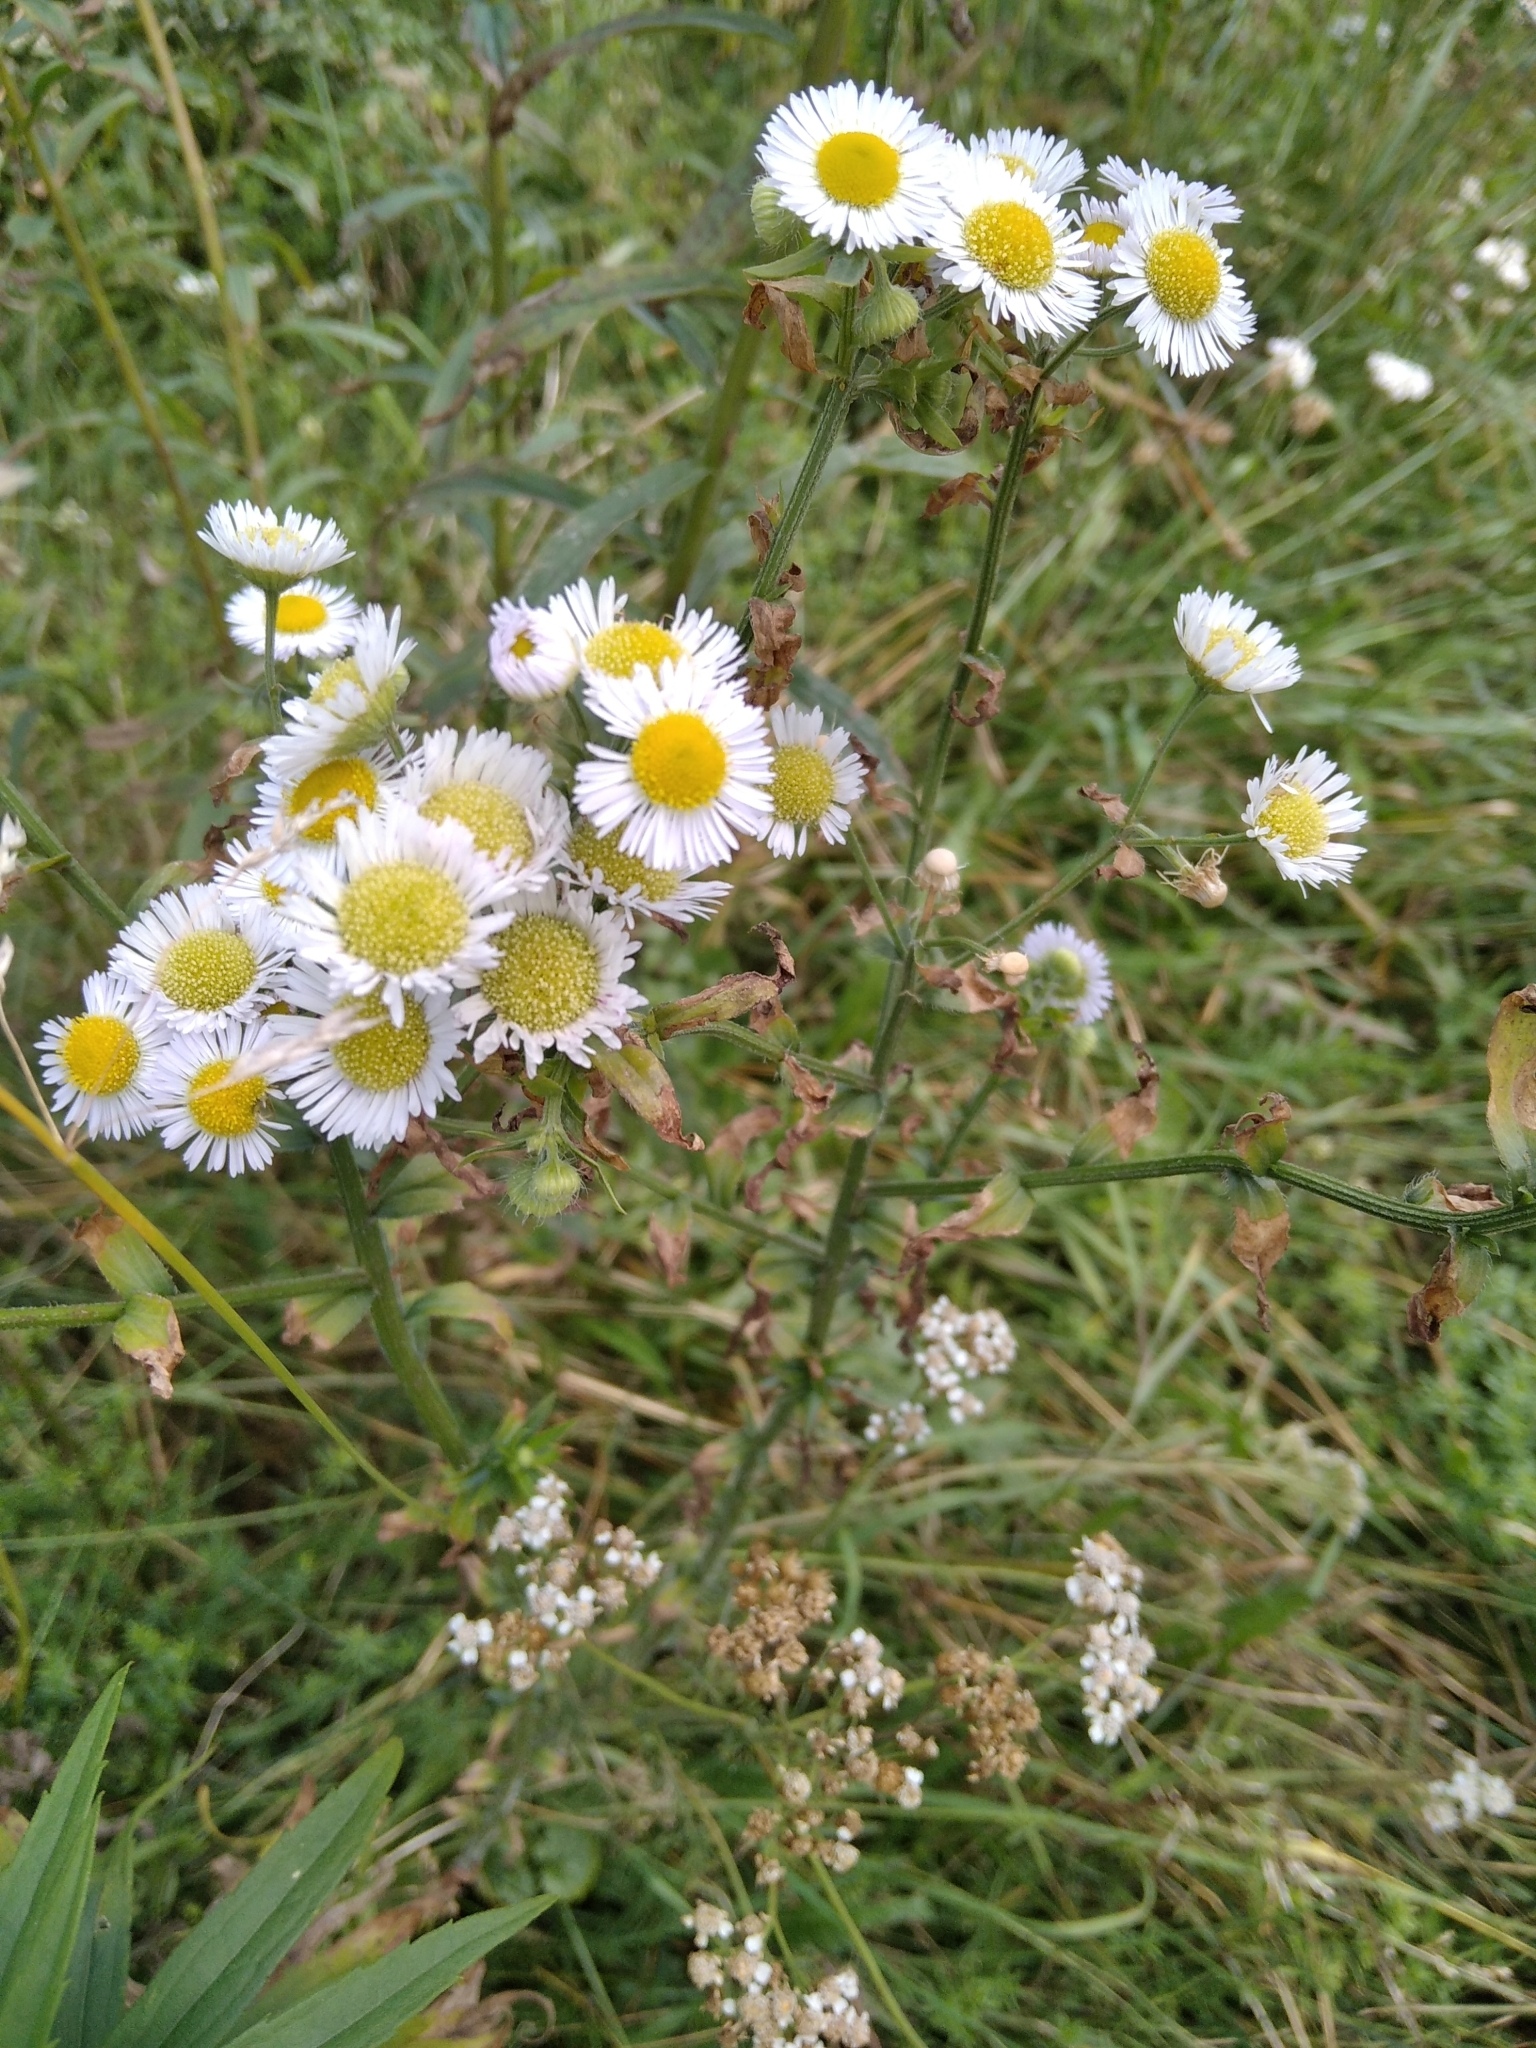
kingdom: Plantae
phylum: Tracheophyta
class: Magnoliopsida
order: Asterales
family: Asteraceae
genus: Erigeron
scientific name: Erigeron annuus
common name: Tall fleabane
